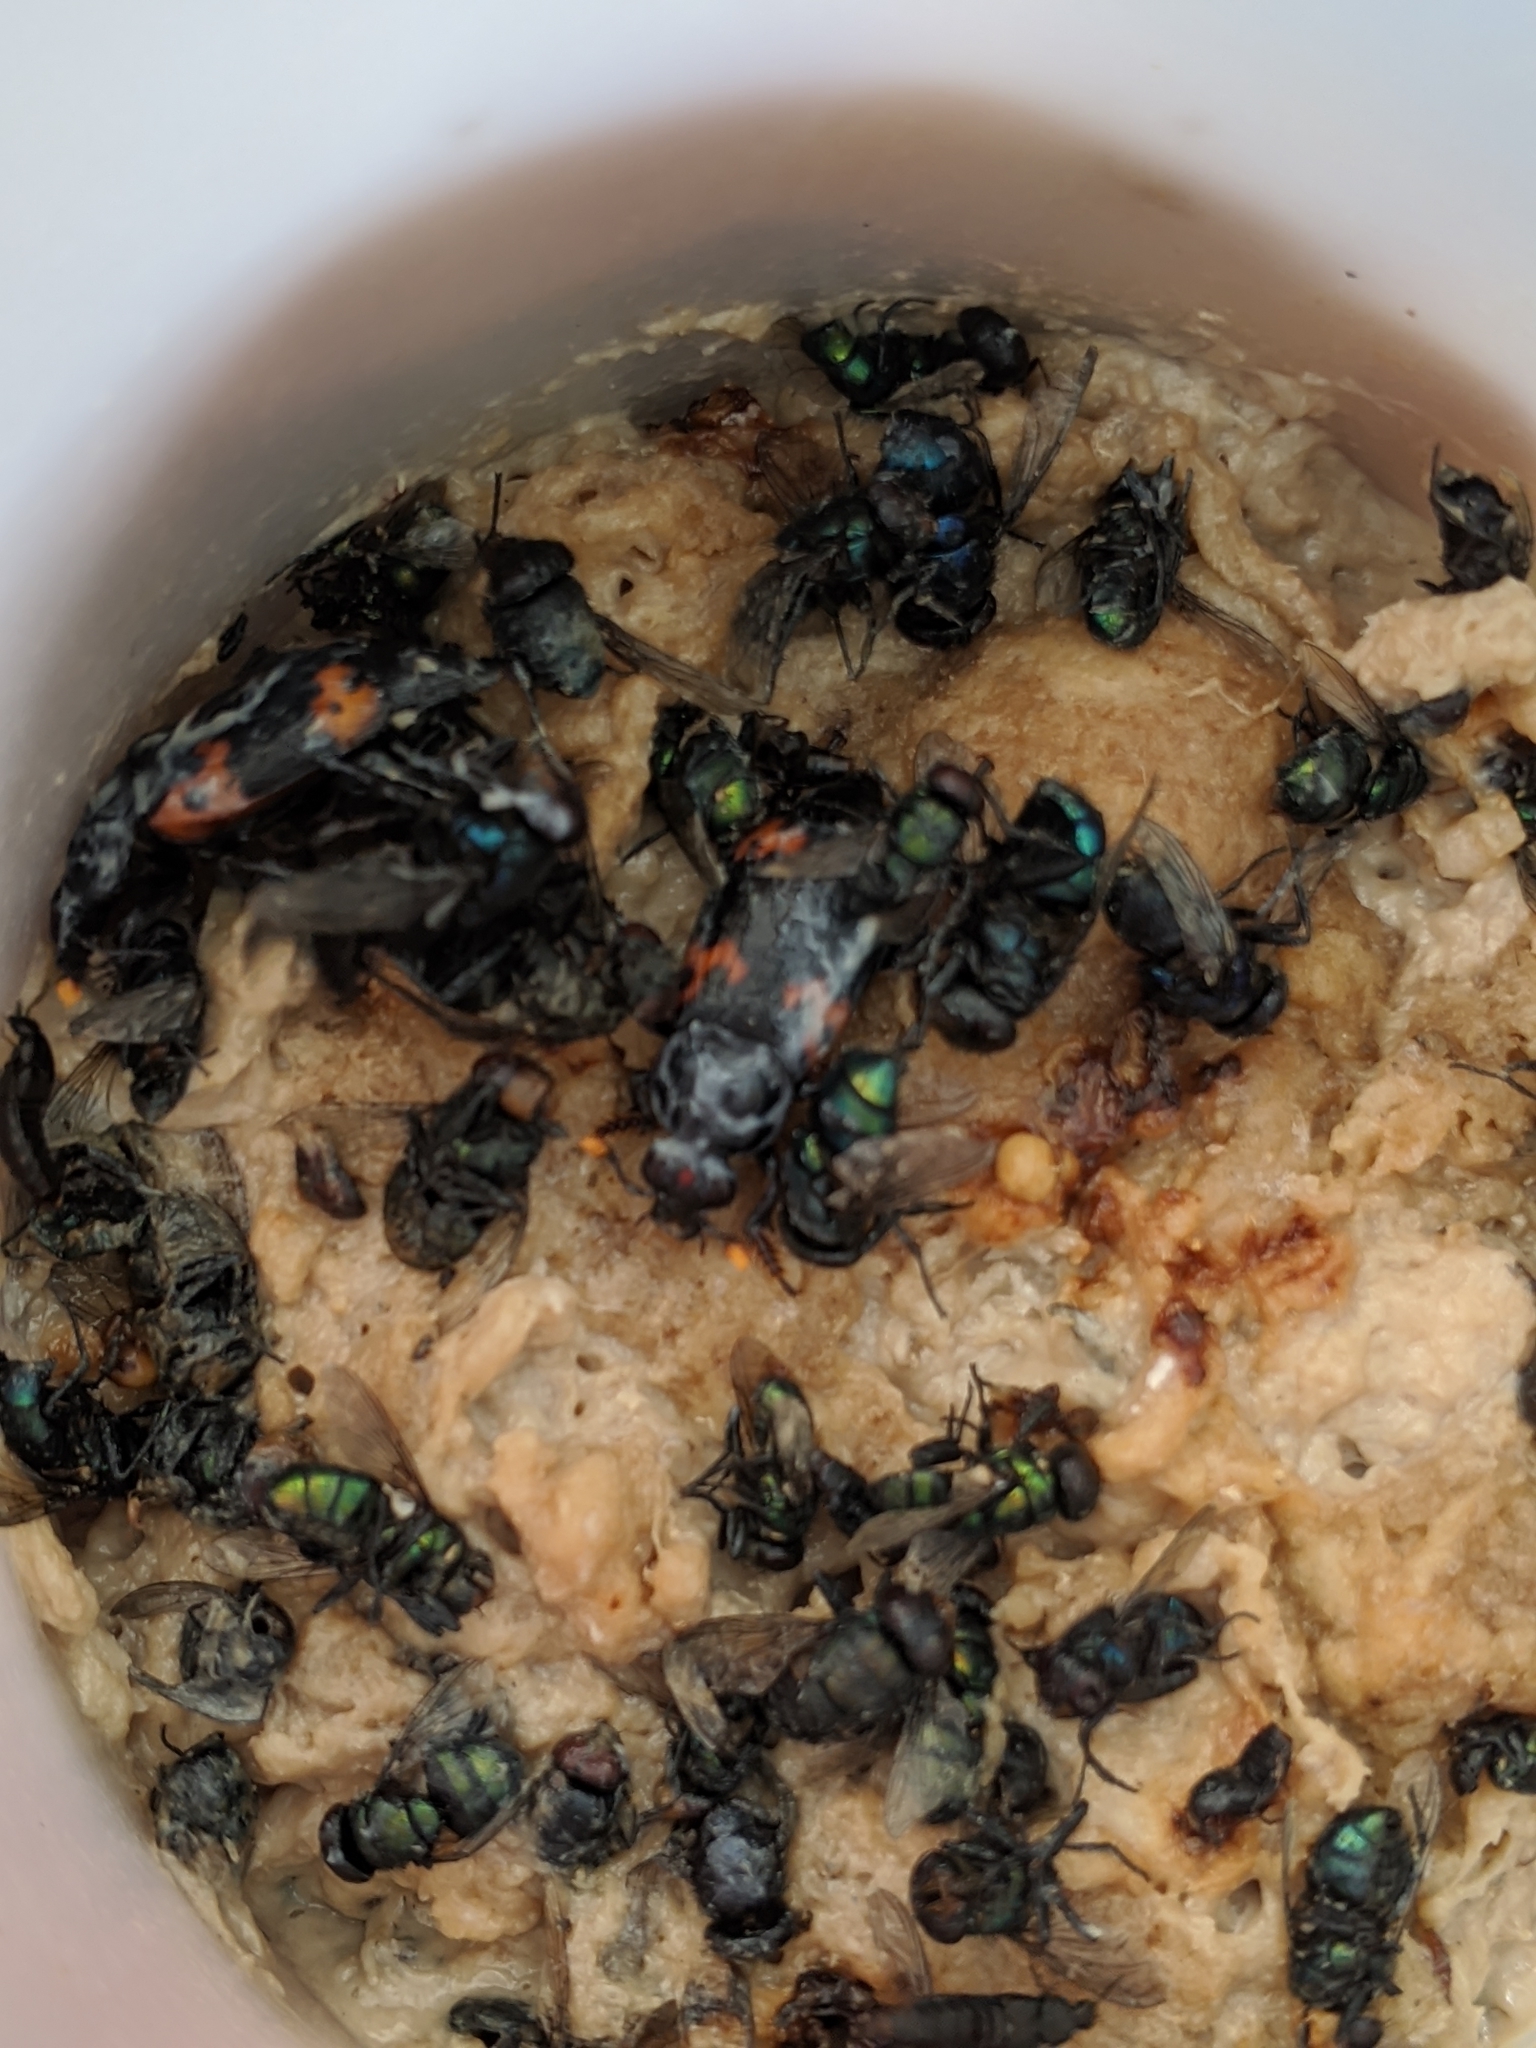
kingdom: Animalia
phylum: Arthropoda
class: Insecta
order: Coleoptera
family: Staphylinidae
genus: Nicrophorus
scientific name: Nicrophorus nepalensis
